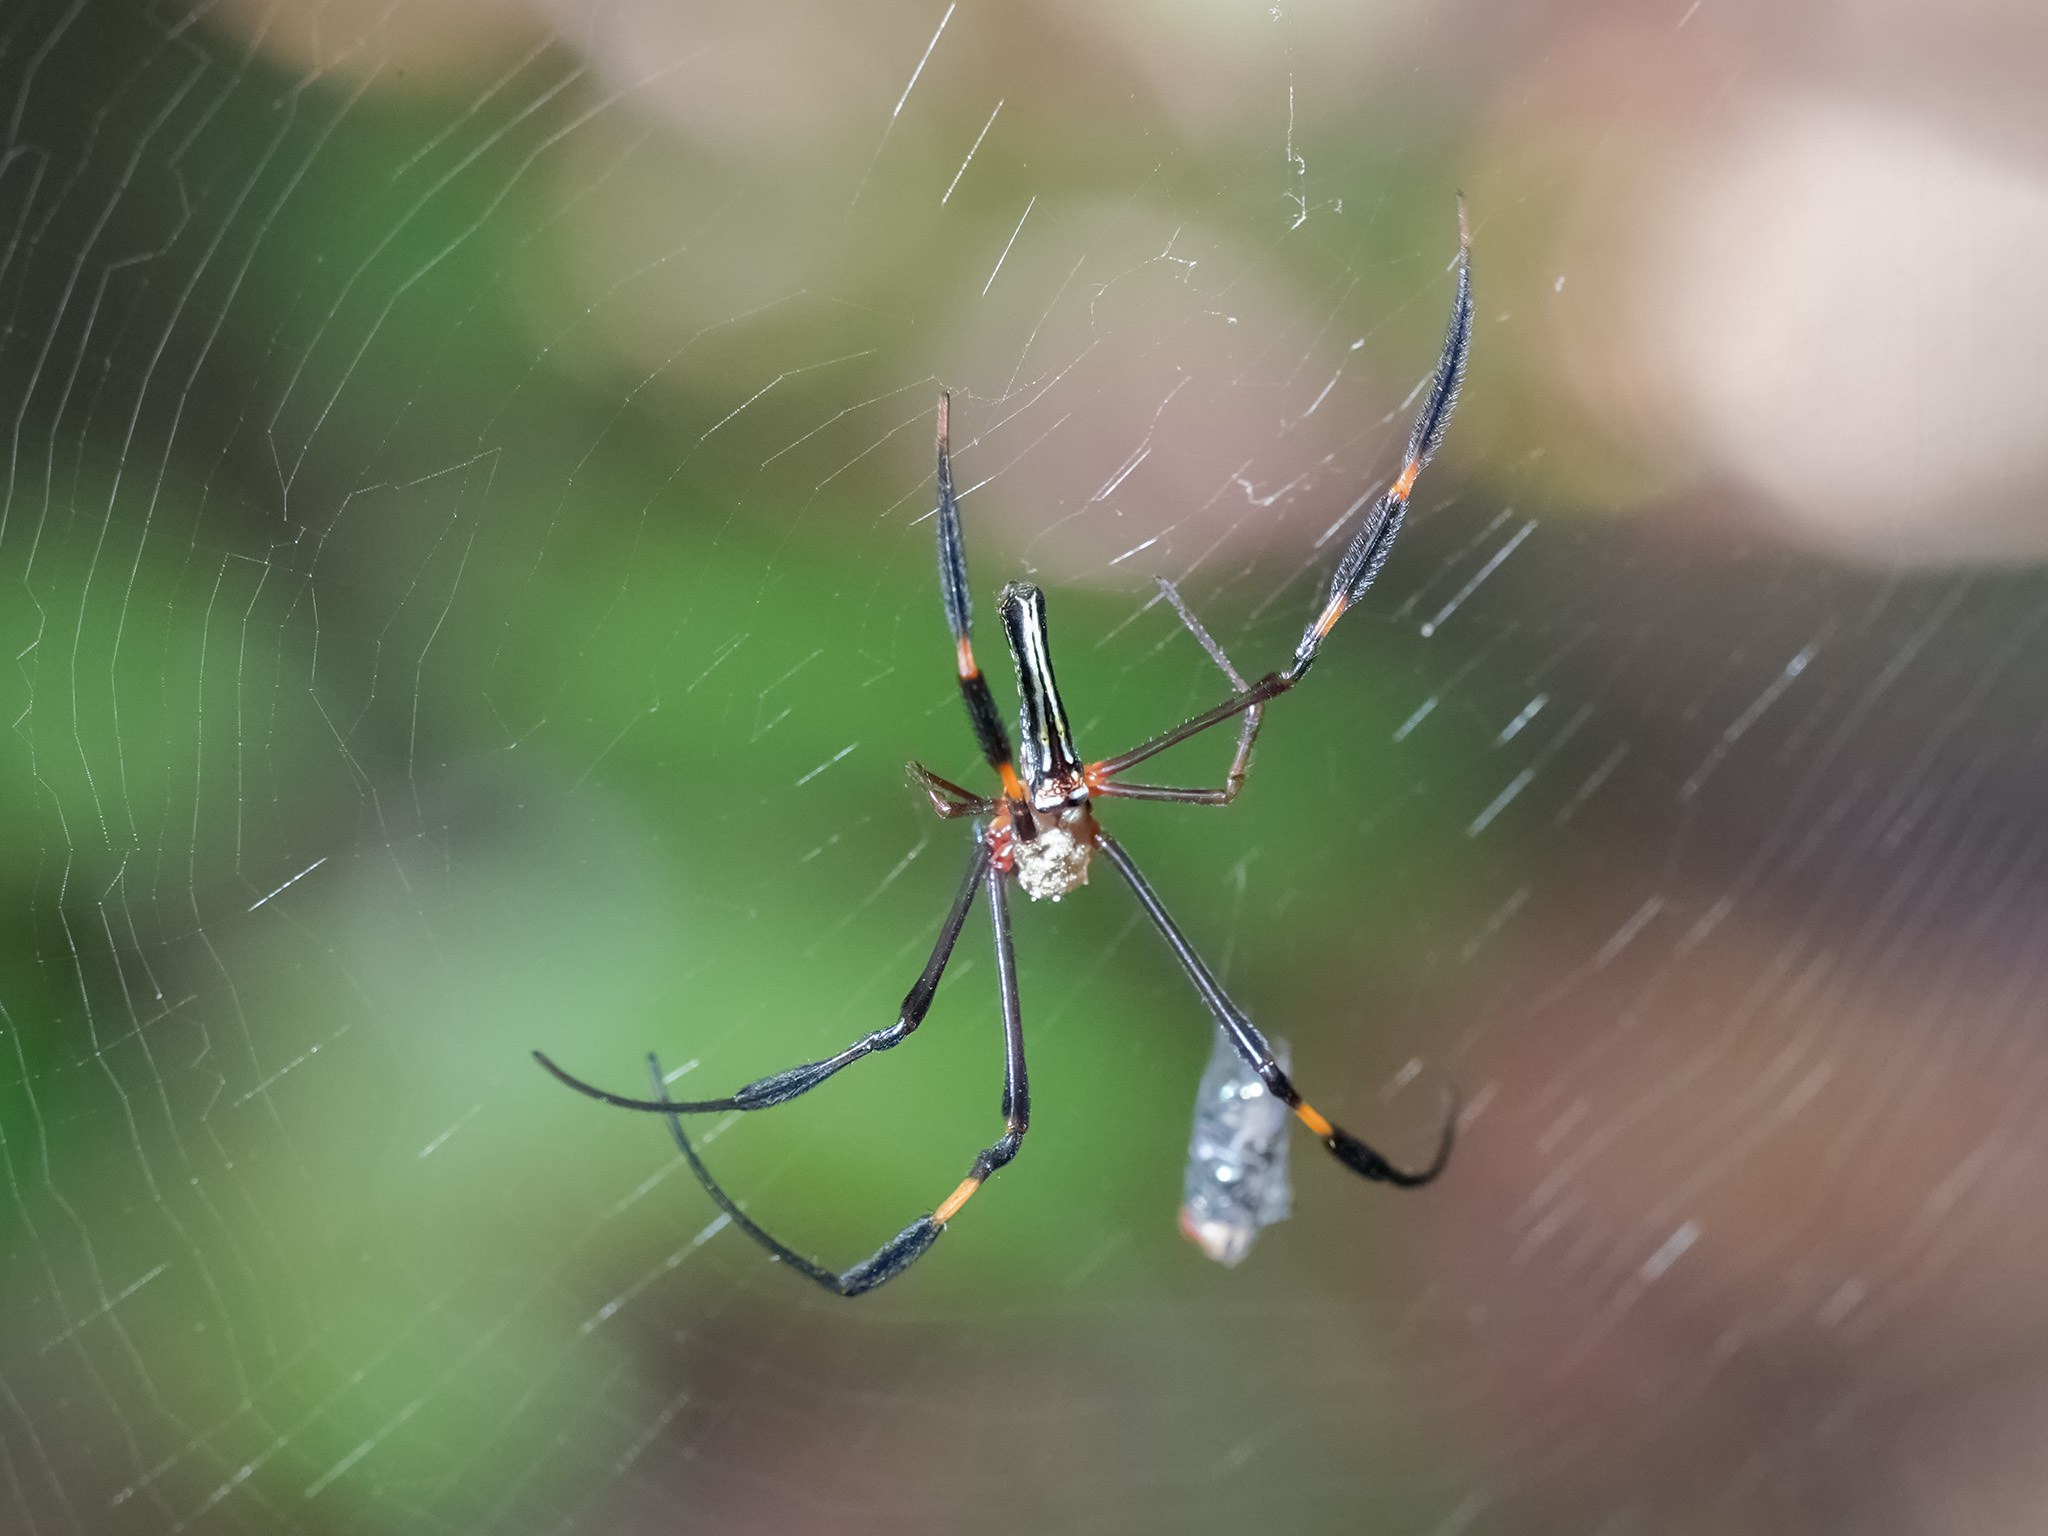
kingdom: Animalia
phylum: Arthropoda
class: Arachnida
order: Araneae
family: Araneidae
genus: Nephila
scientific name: Nephila pilipes
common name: Giant golden orb weaver
